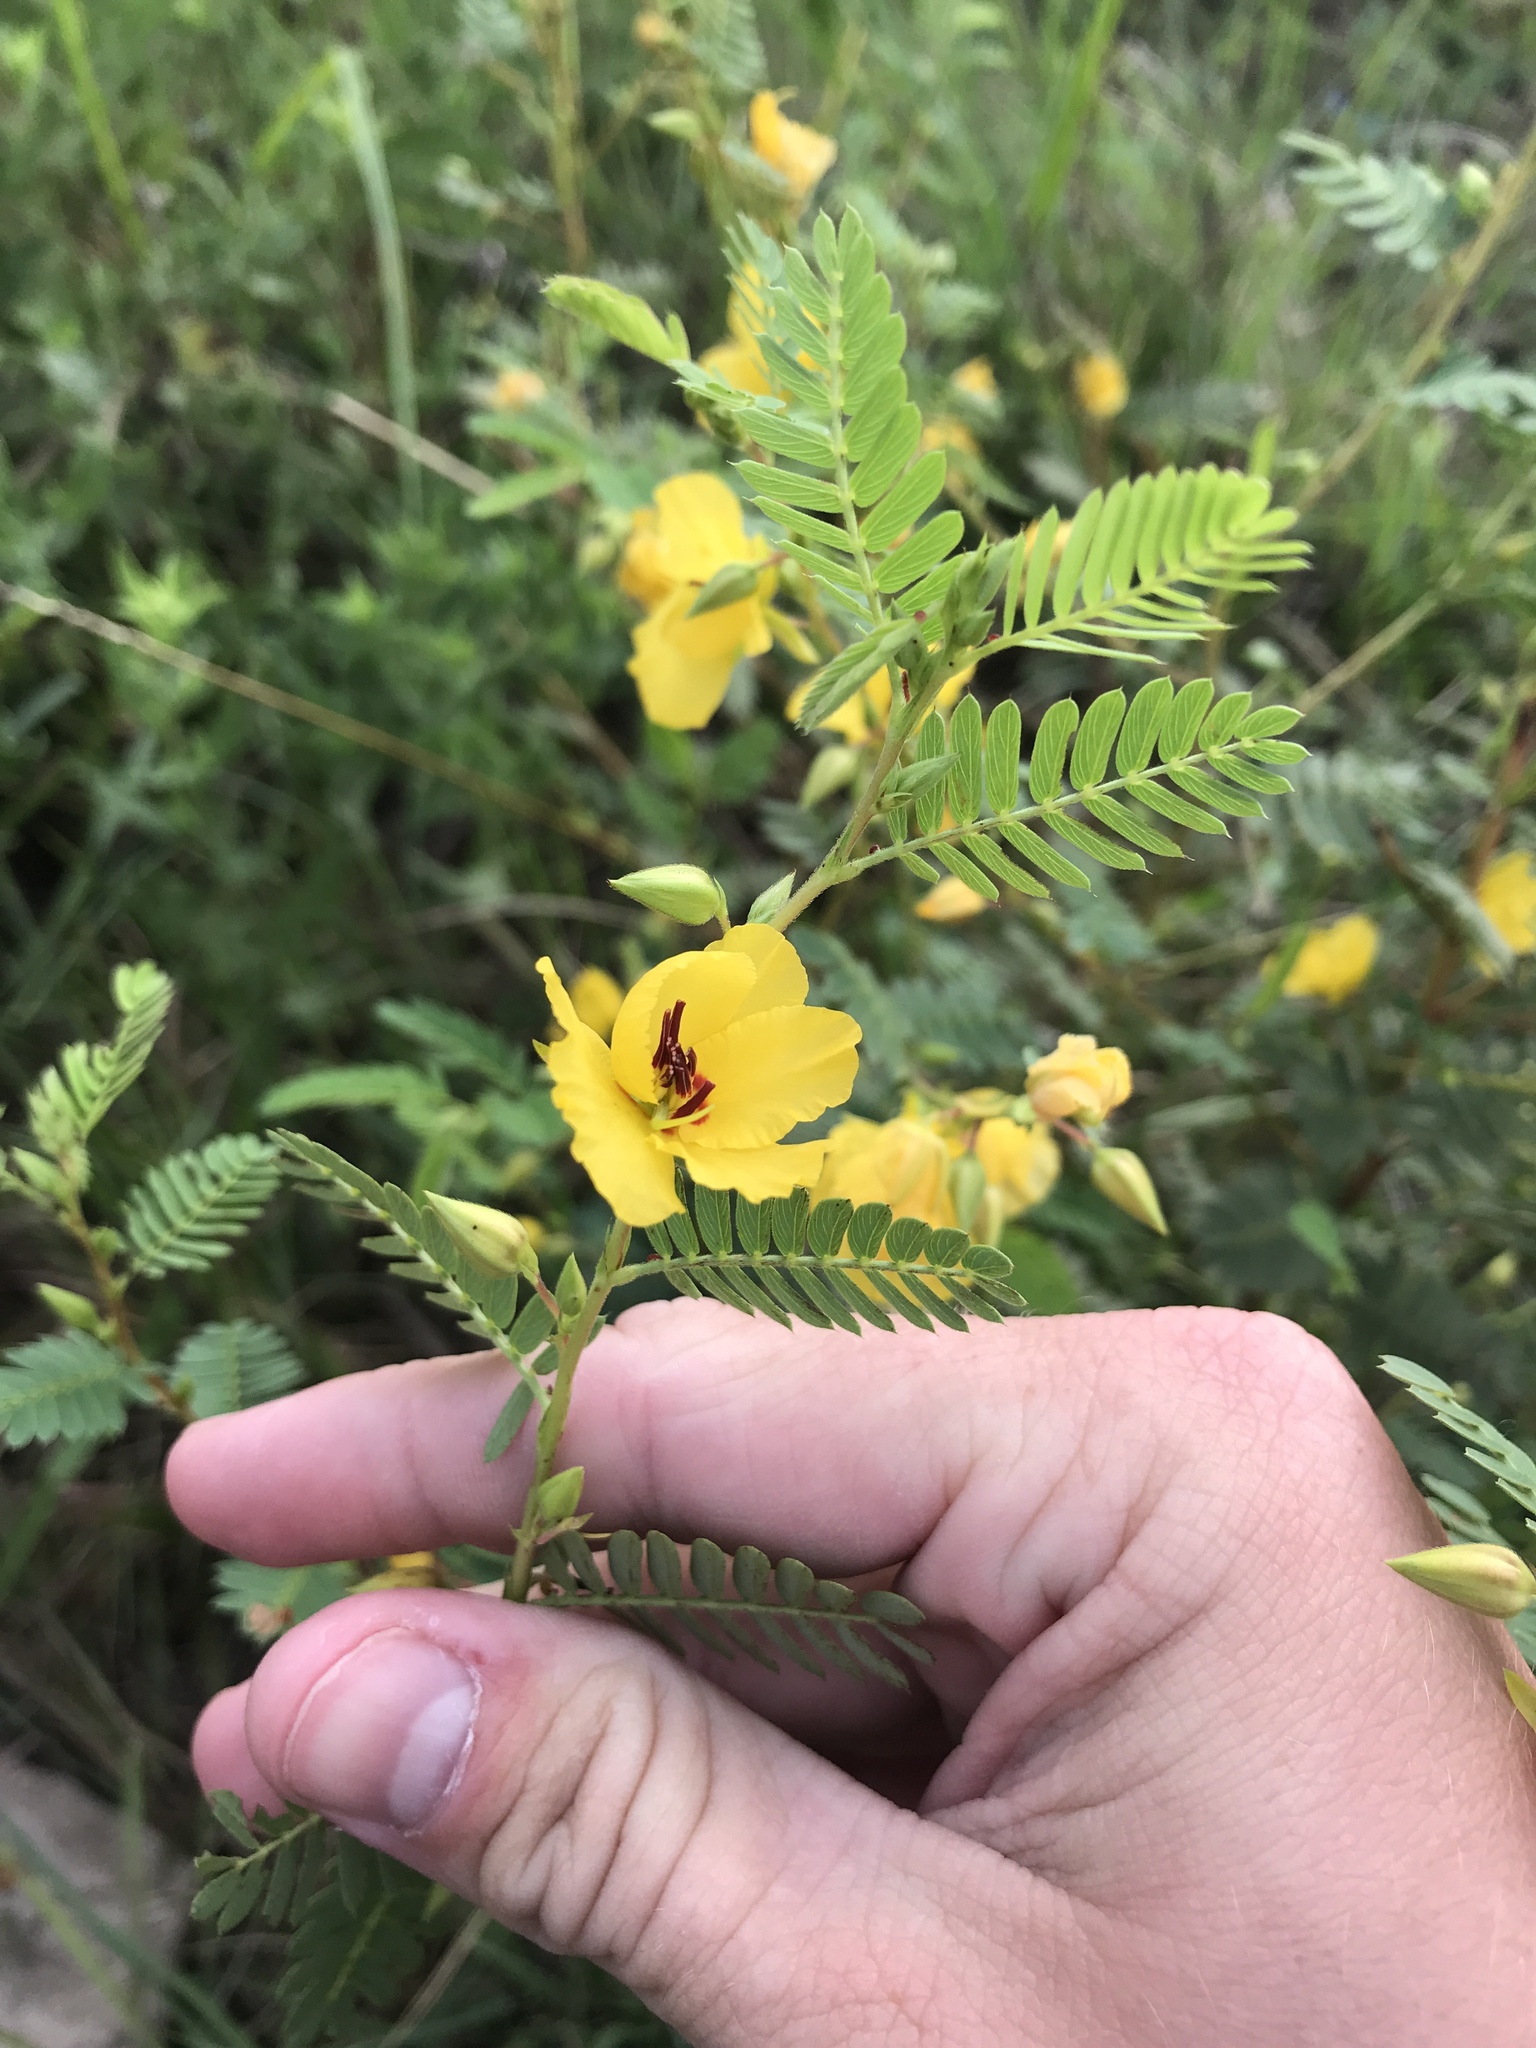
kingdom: Plantae
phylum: Tracheophyta
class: Magnoliopsida
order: Fabales
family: Fabaceae
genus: Chamaecrista
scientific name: Chamaecrista fasciculata
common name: Golden cassia
